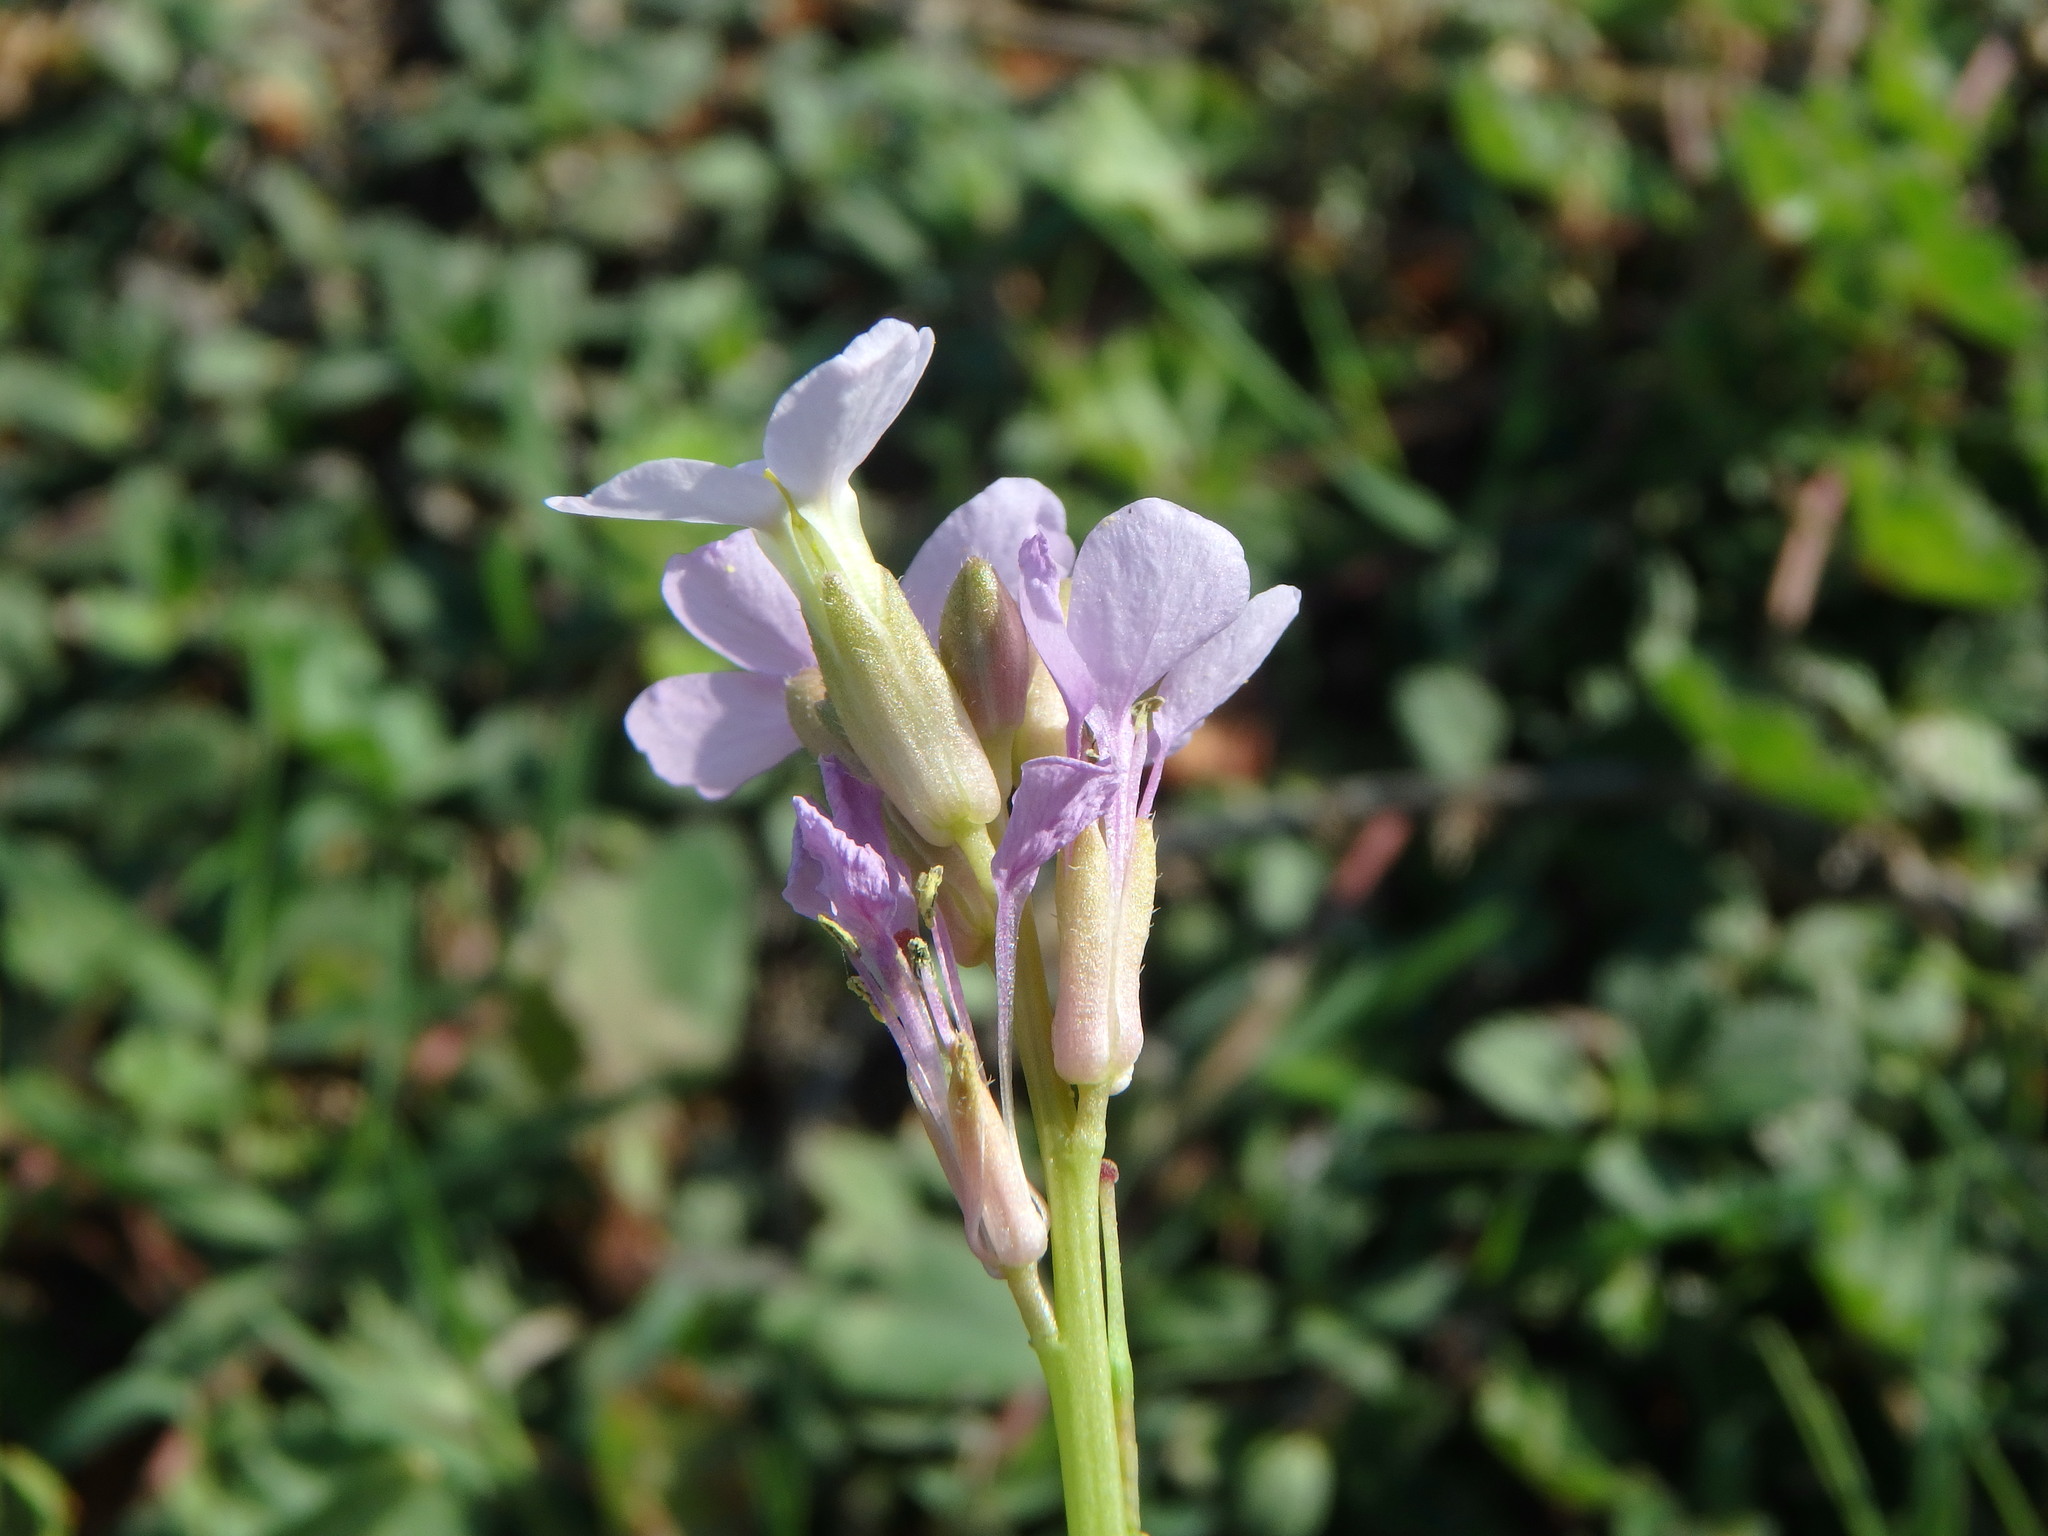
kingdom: Plantae
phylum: Tracheophyta
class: Magnoliopsida
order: Brassicales
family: Brassicaceae
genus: Erucaria
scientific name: Erucaria hispanica
